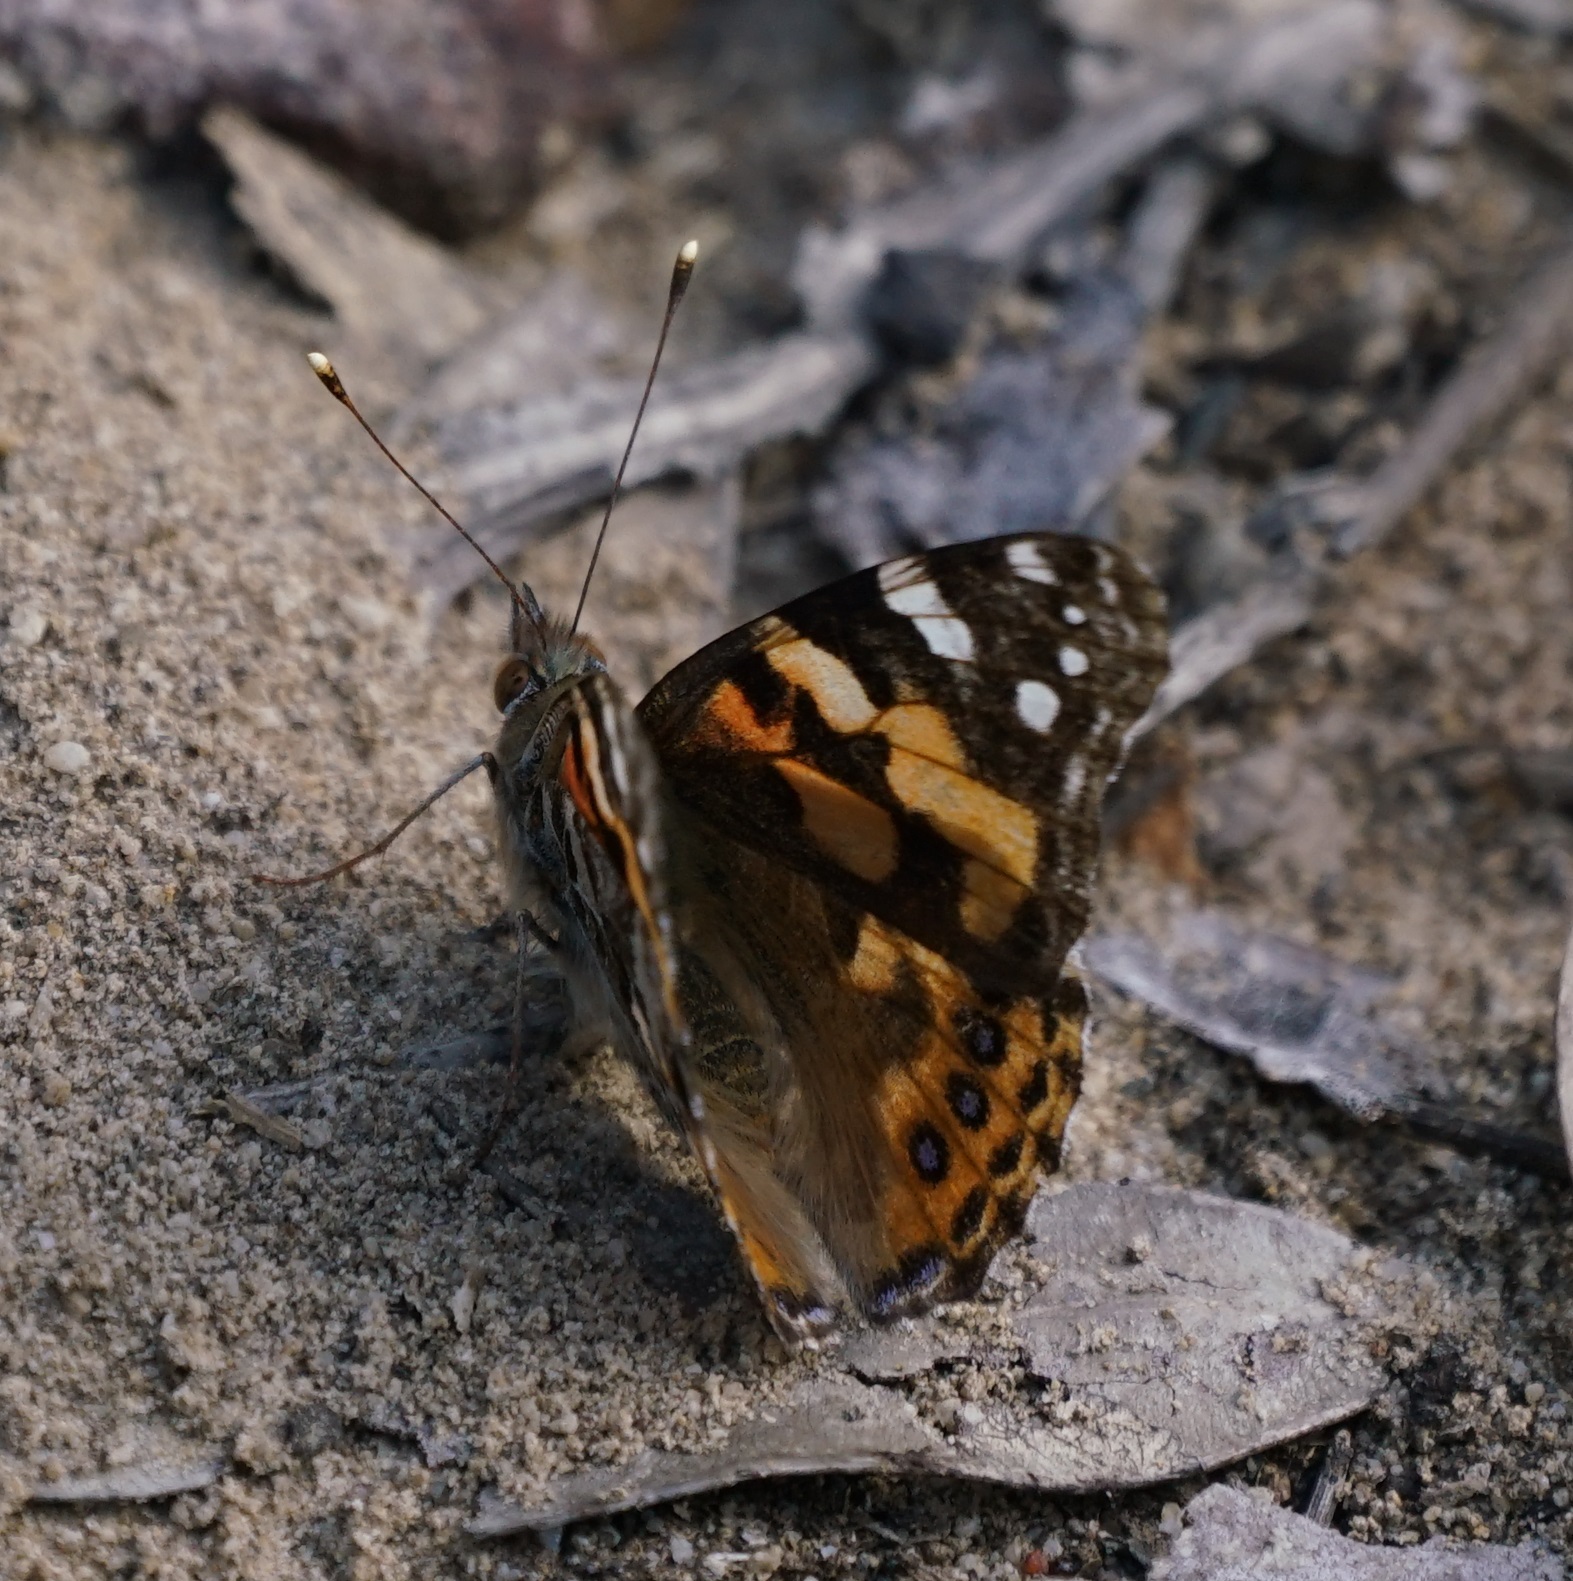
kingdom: Animalia
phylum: Arthropoda
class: Insecta
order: Lepidoptera
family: Nymphalidae
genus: Vanessa
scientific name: Vanessa kershawi
